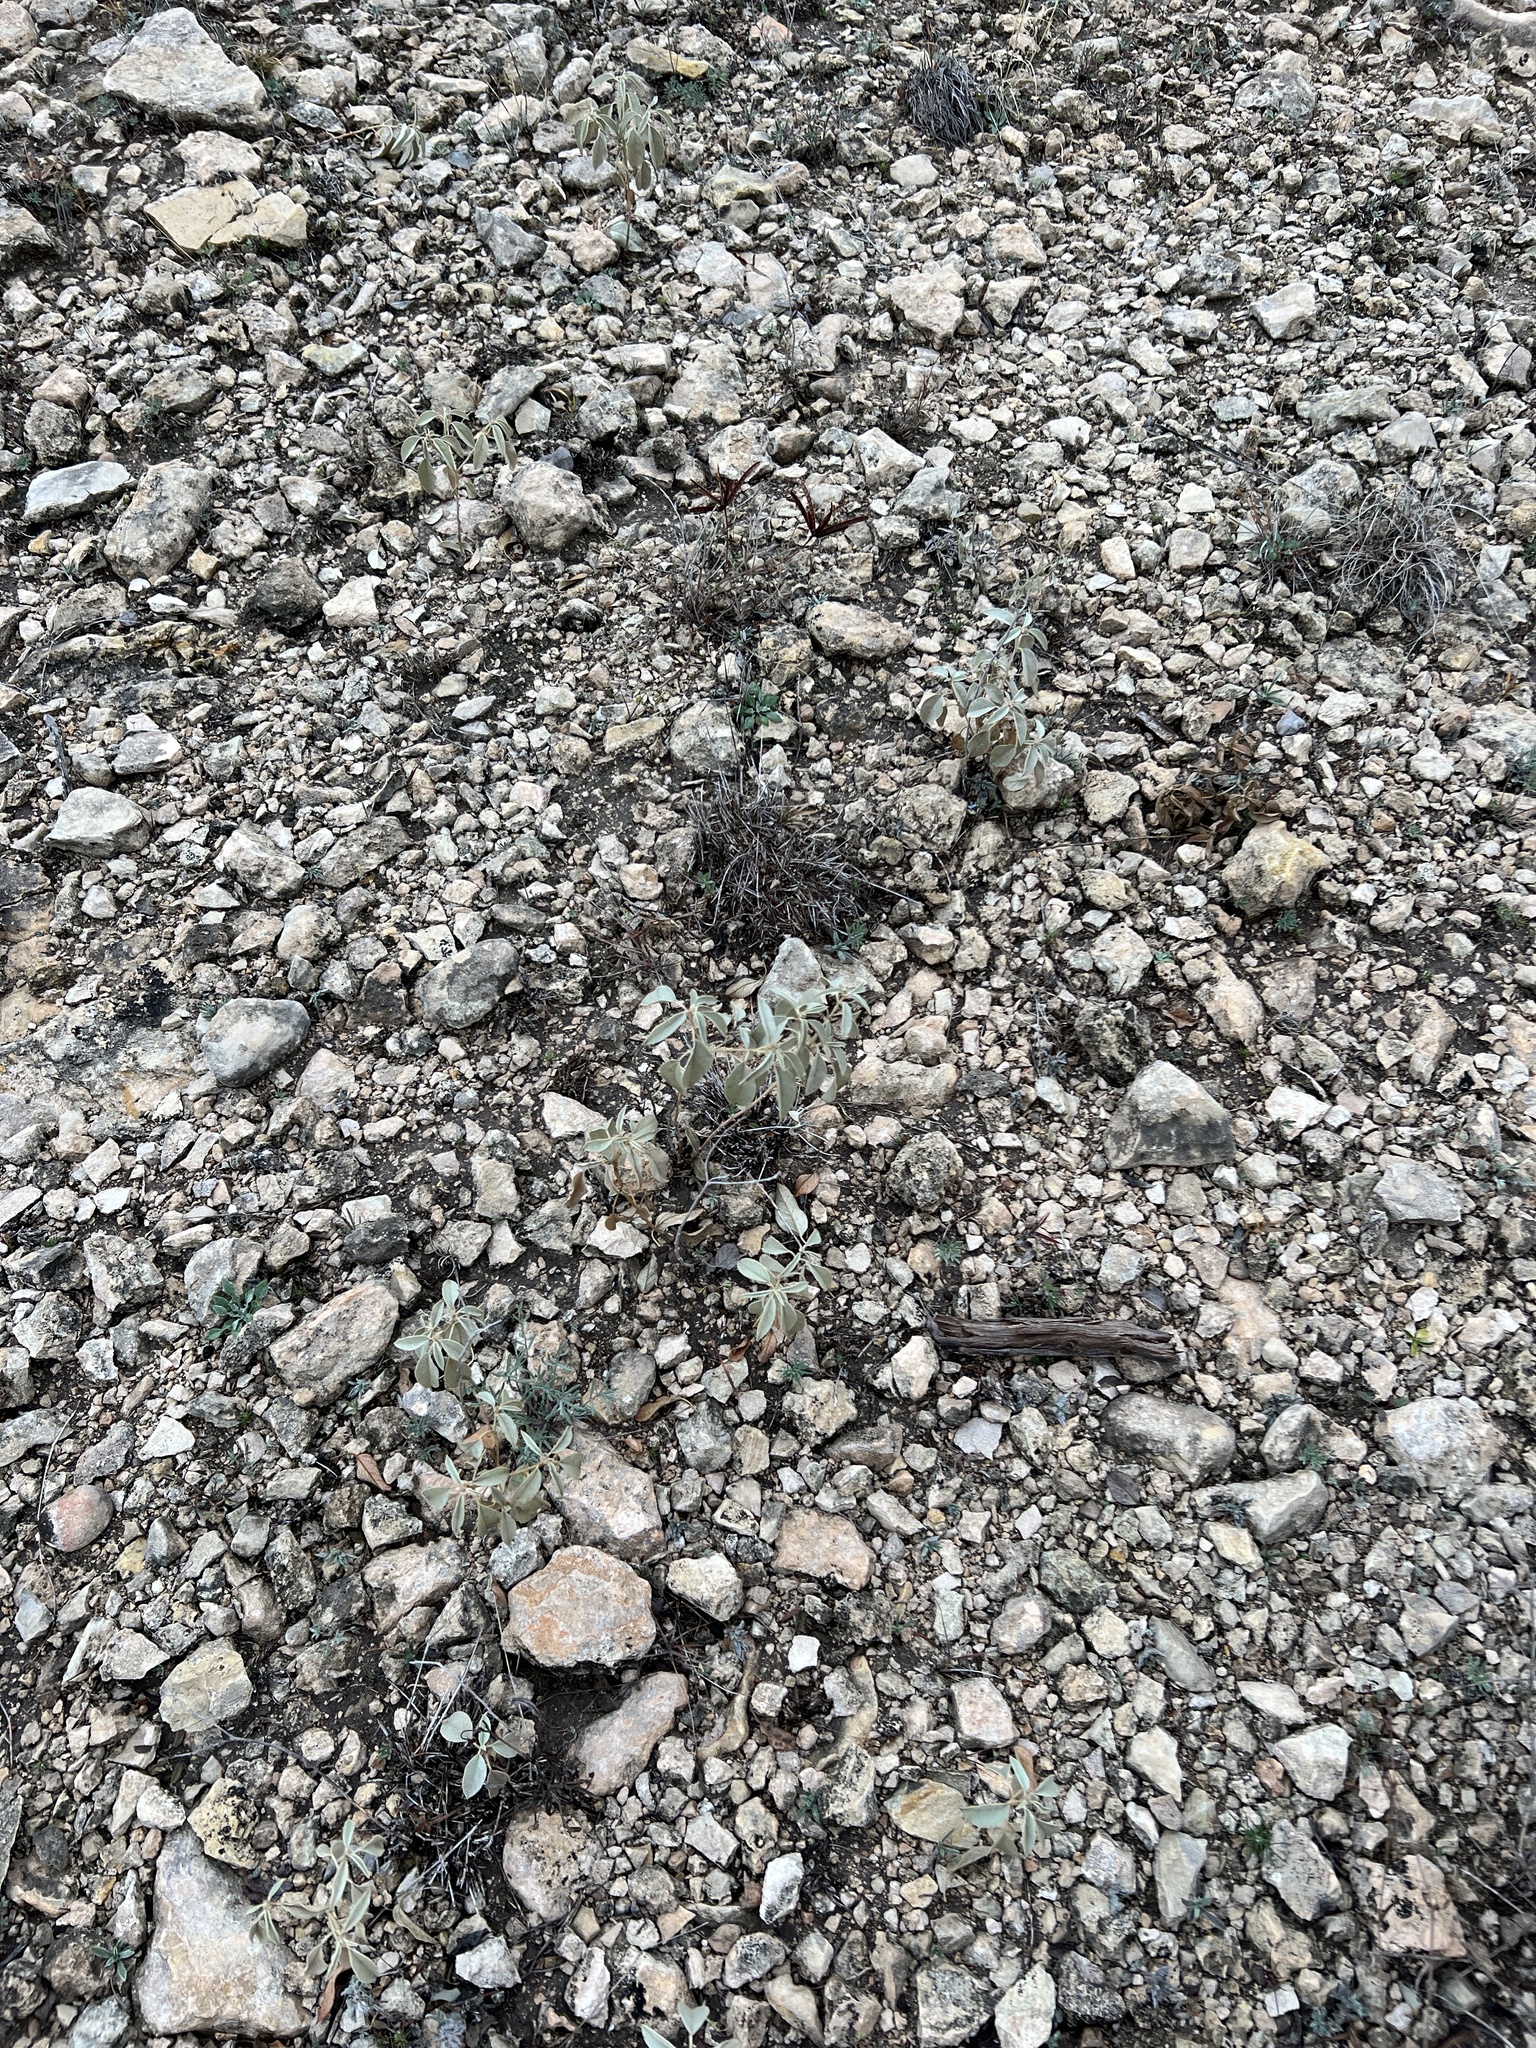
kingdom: Plantae
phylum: Tracheophyta
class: Magnoliopsida
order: Malpighiales
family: Euphorbiaceae
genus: Croton
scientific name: Croton pottsii
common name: Leatherweed
